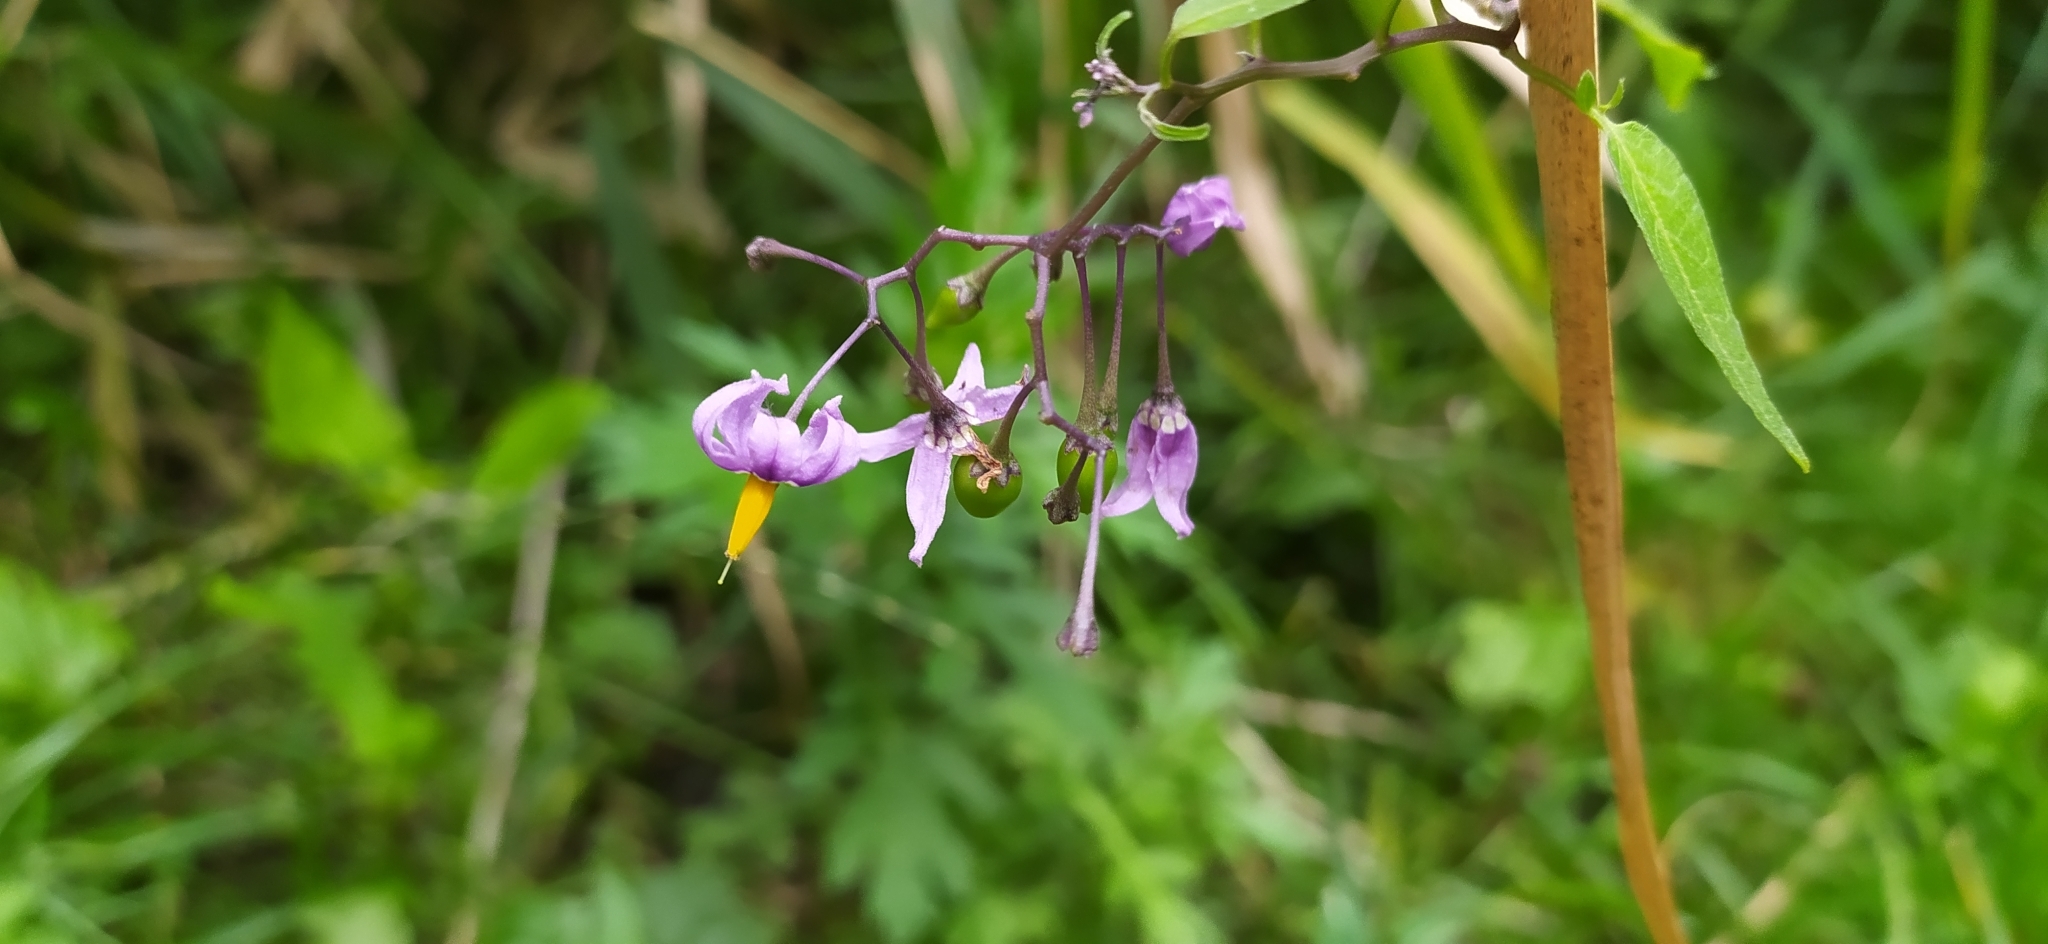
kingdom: Plantae
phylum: Tracheophyta
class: Magnoliopsida
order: Solanales
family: Solanaceae
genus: Solanum
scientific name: Solanum dulcamara
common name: Climbing nightshade
